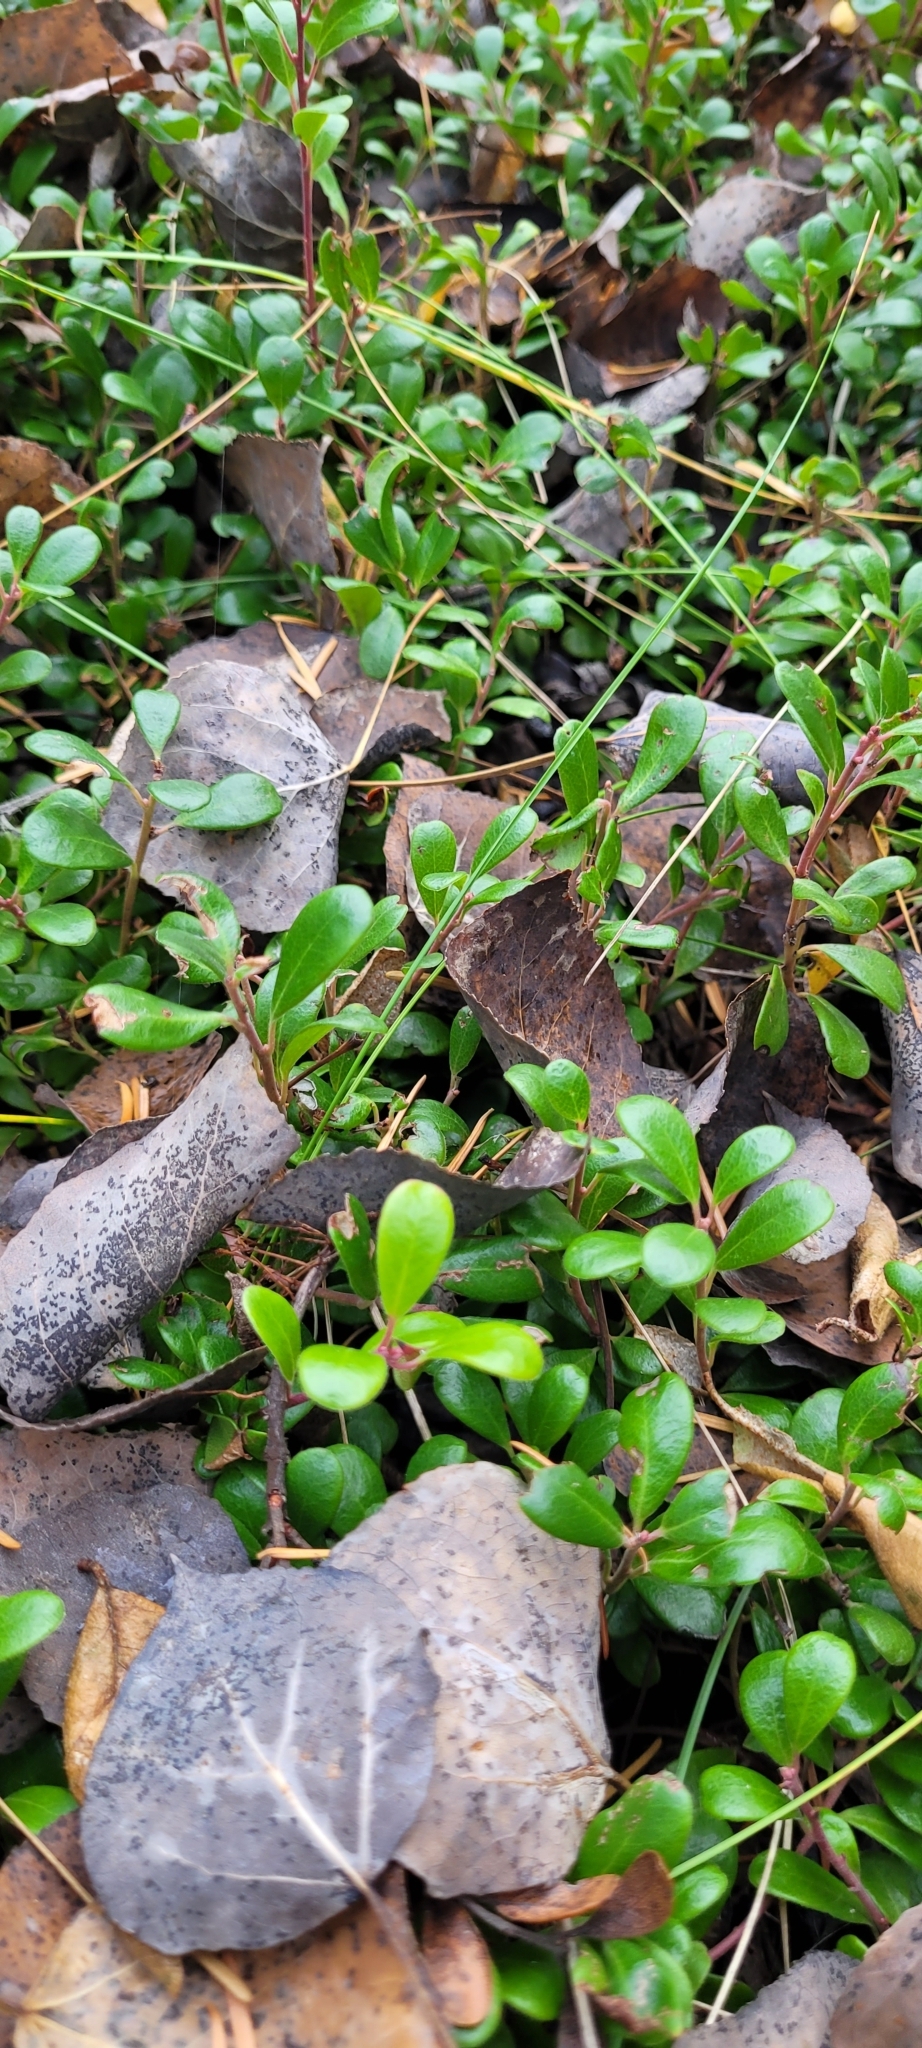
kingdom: Plantae
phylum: Tracheophyta
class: Magnoliopsida
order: Ericales
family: Ericaceae
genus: Arctostaphylos
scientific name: Arctostaphylos uva-ursi
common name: Bearberry
